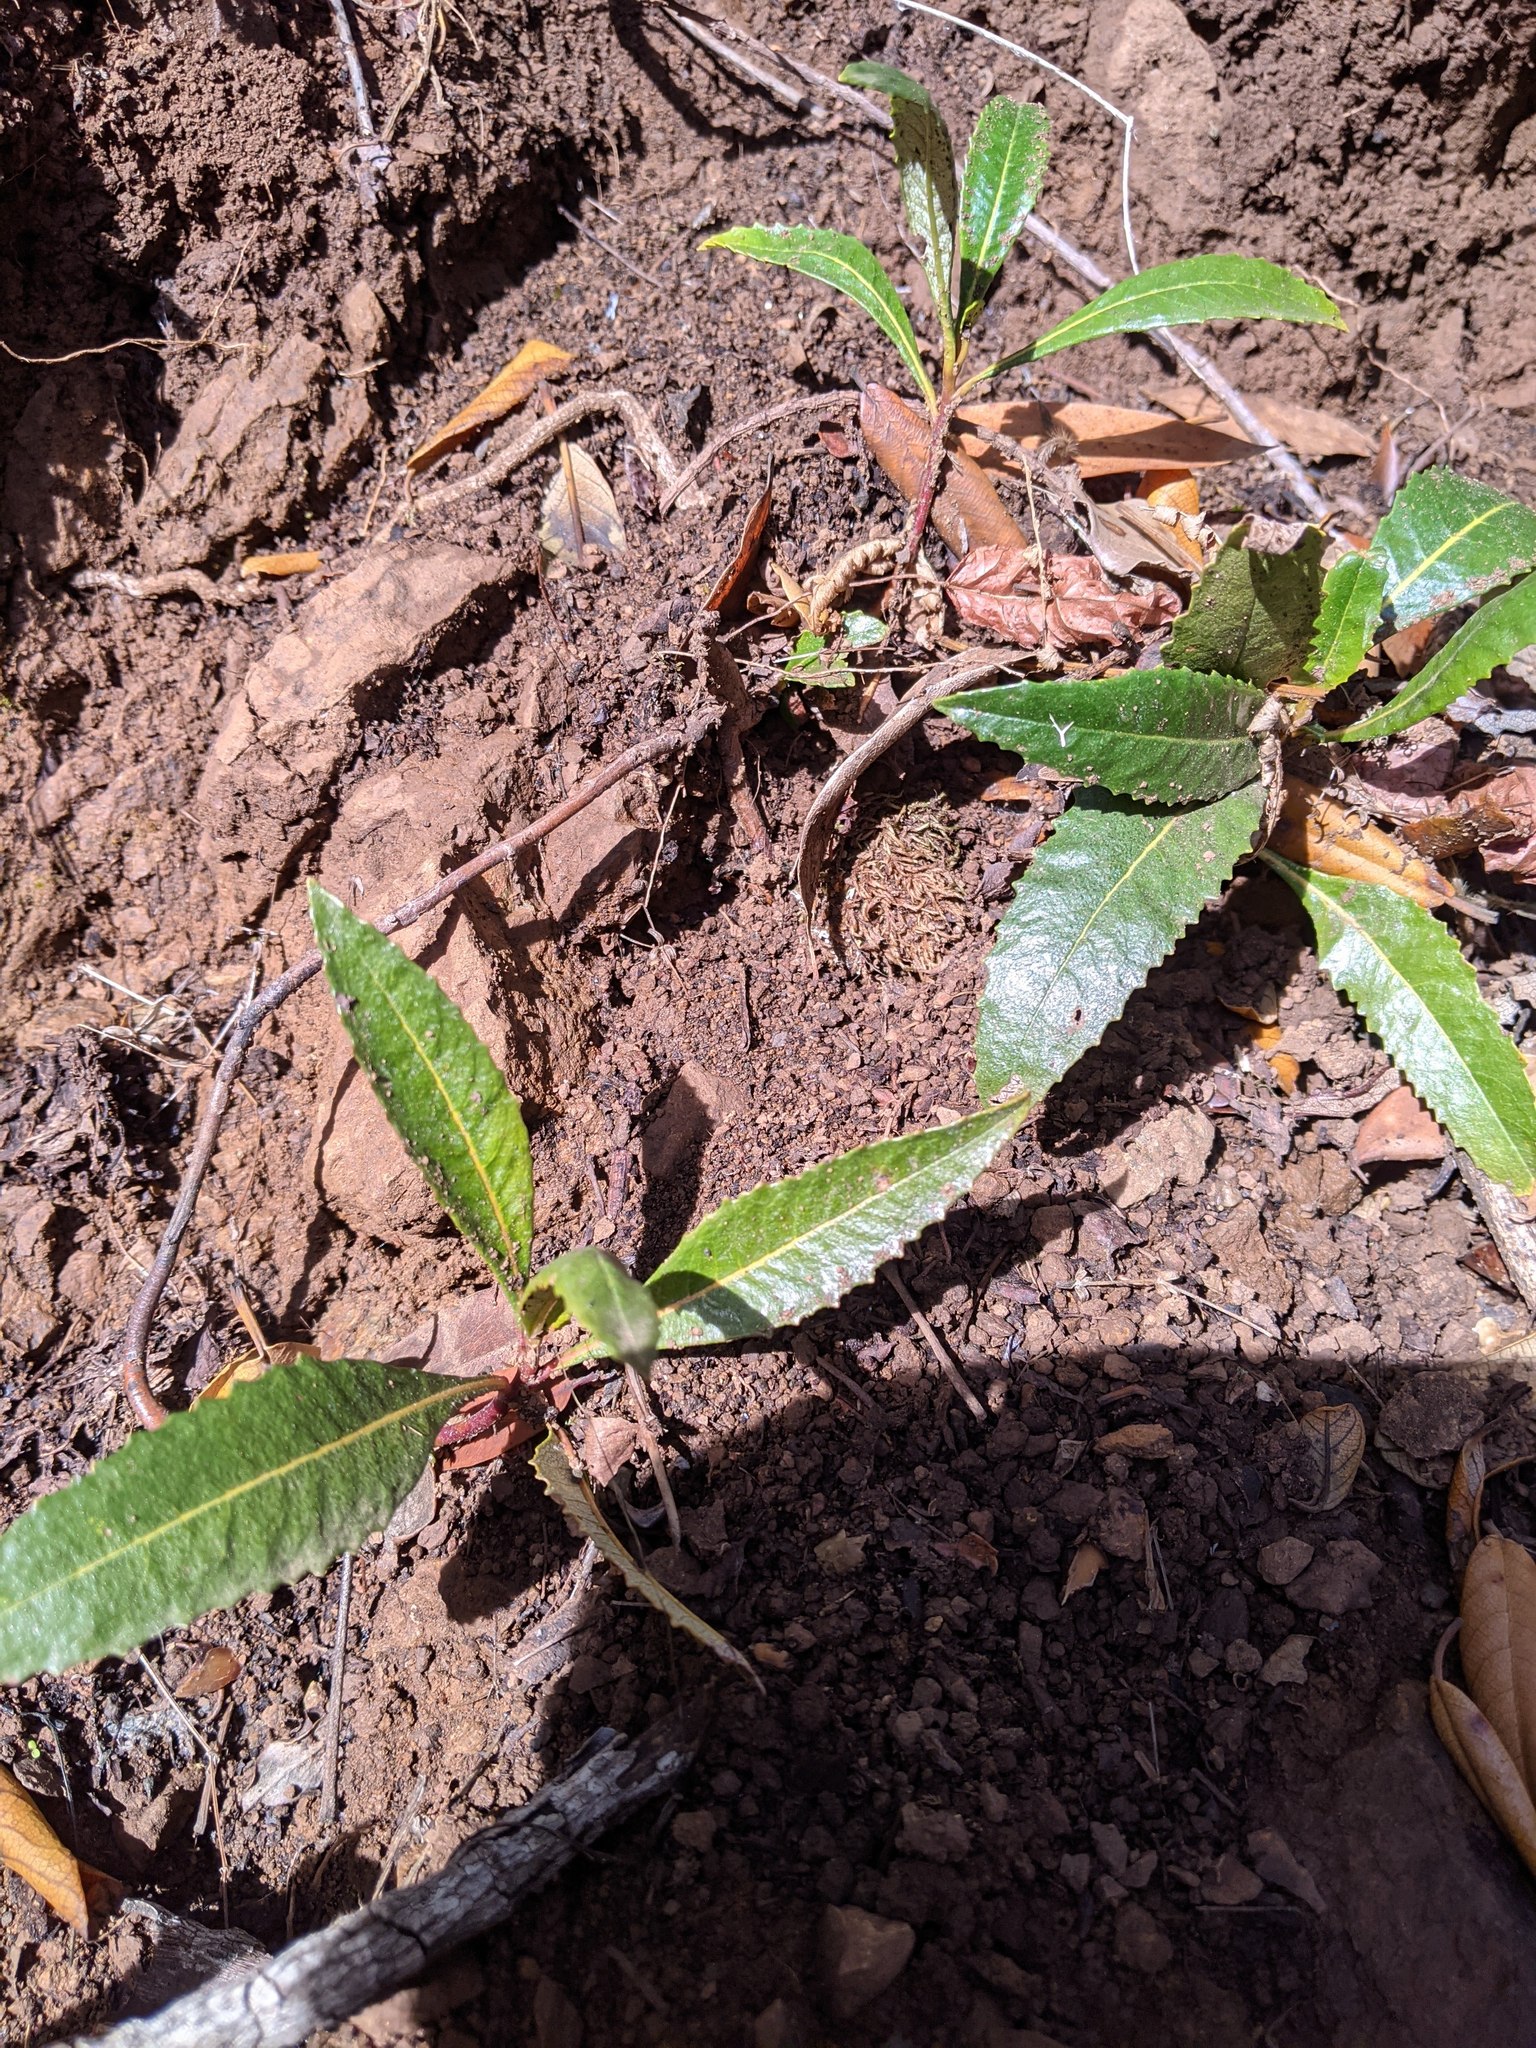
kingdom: Plantae
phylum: Tracheophyta
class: Magnoliopsida
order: Boraginales
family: Namaceae
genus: Eriodictyon
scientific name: Eriodictyon californicum
